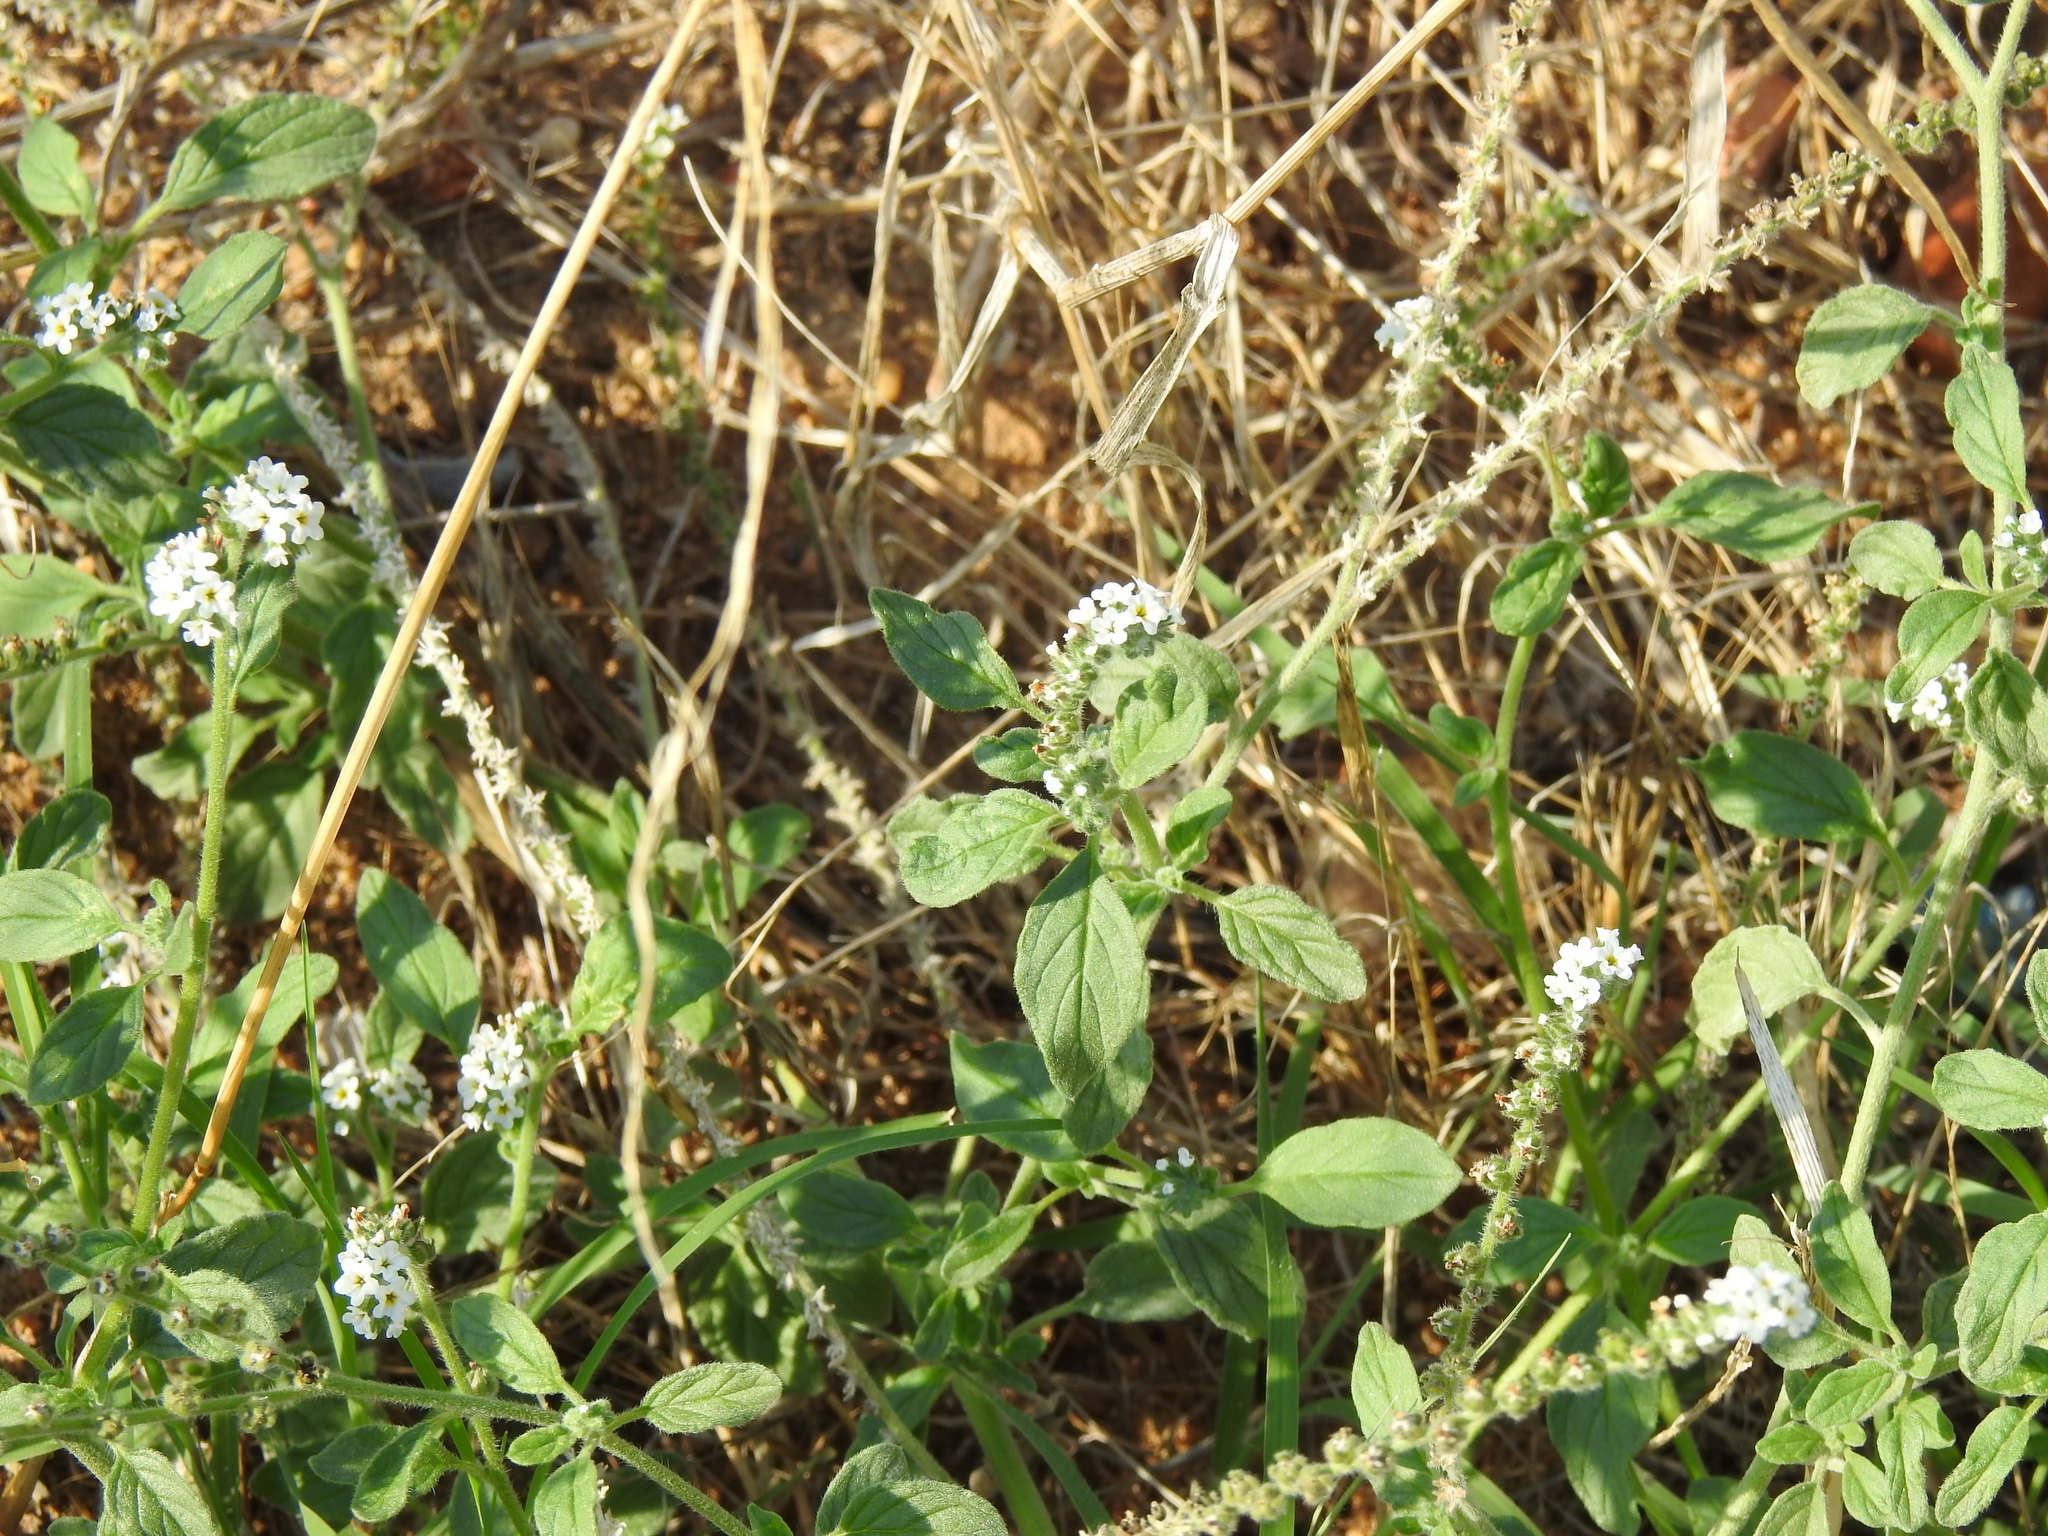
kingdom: Plantae
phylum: Tracheophyta
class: Magnoliopsida
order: Boraginales
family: Heliotropiaceae
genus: Heliotropium
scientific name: Heliotropium europaeum
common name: European heliotrope
